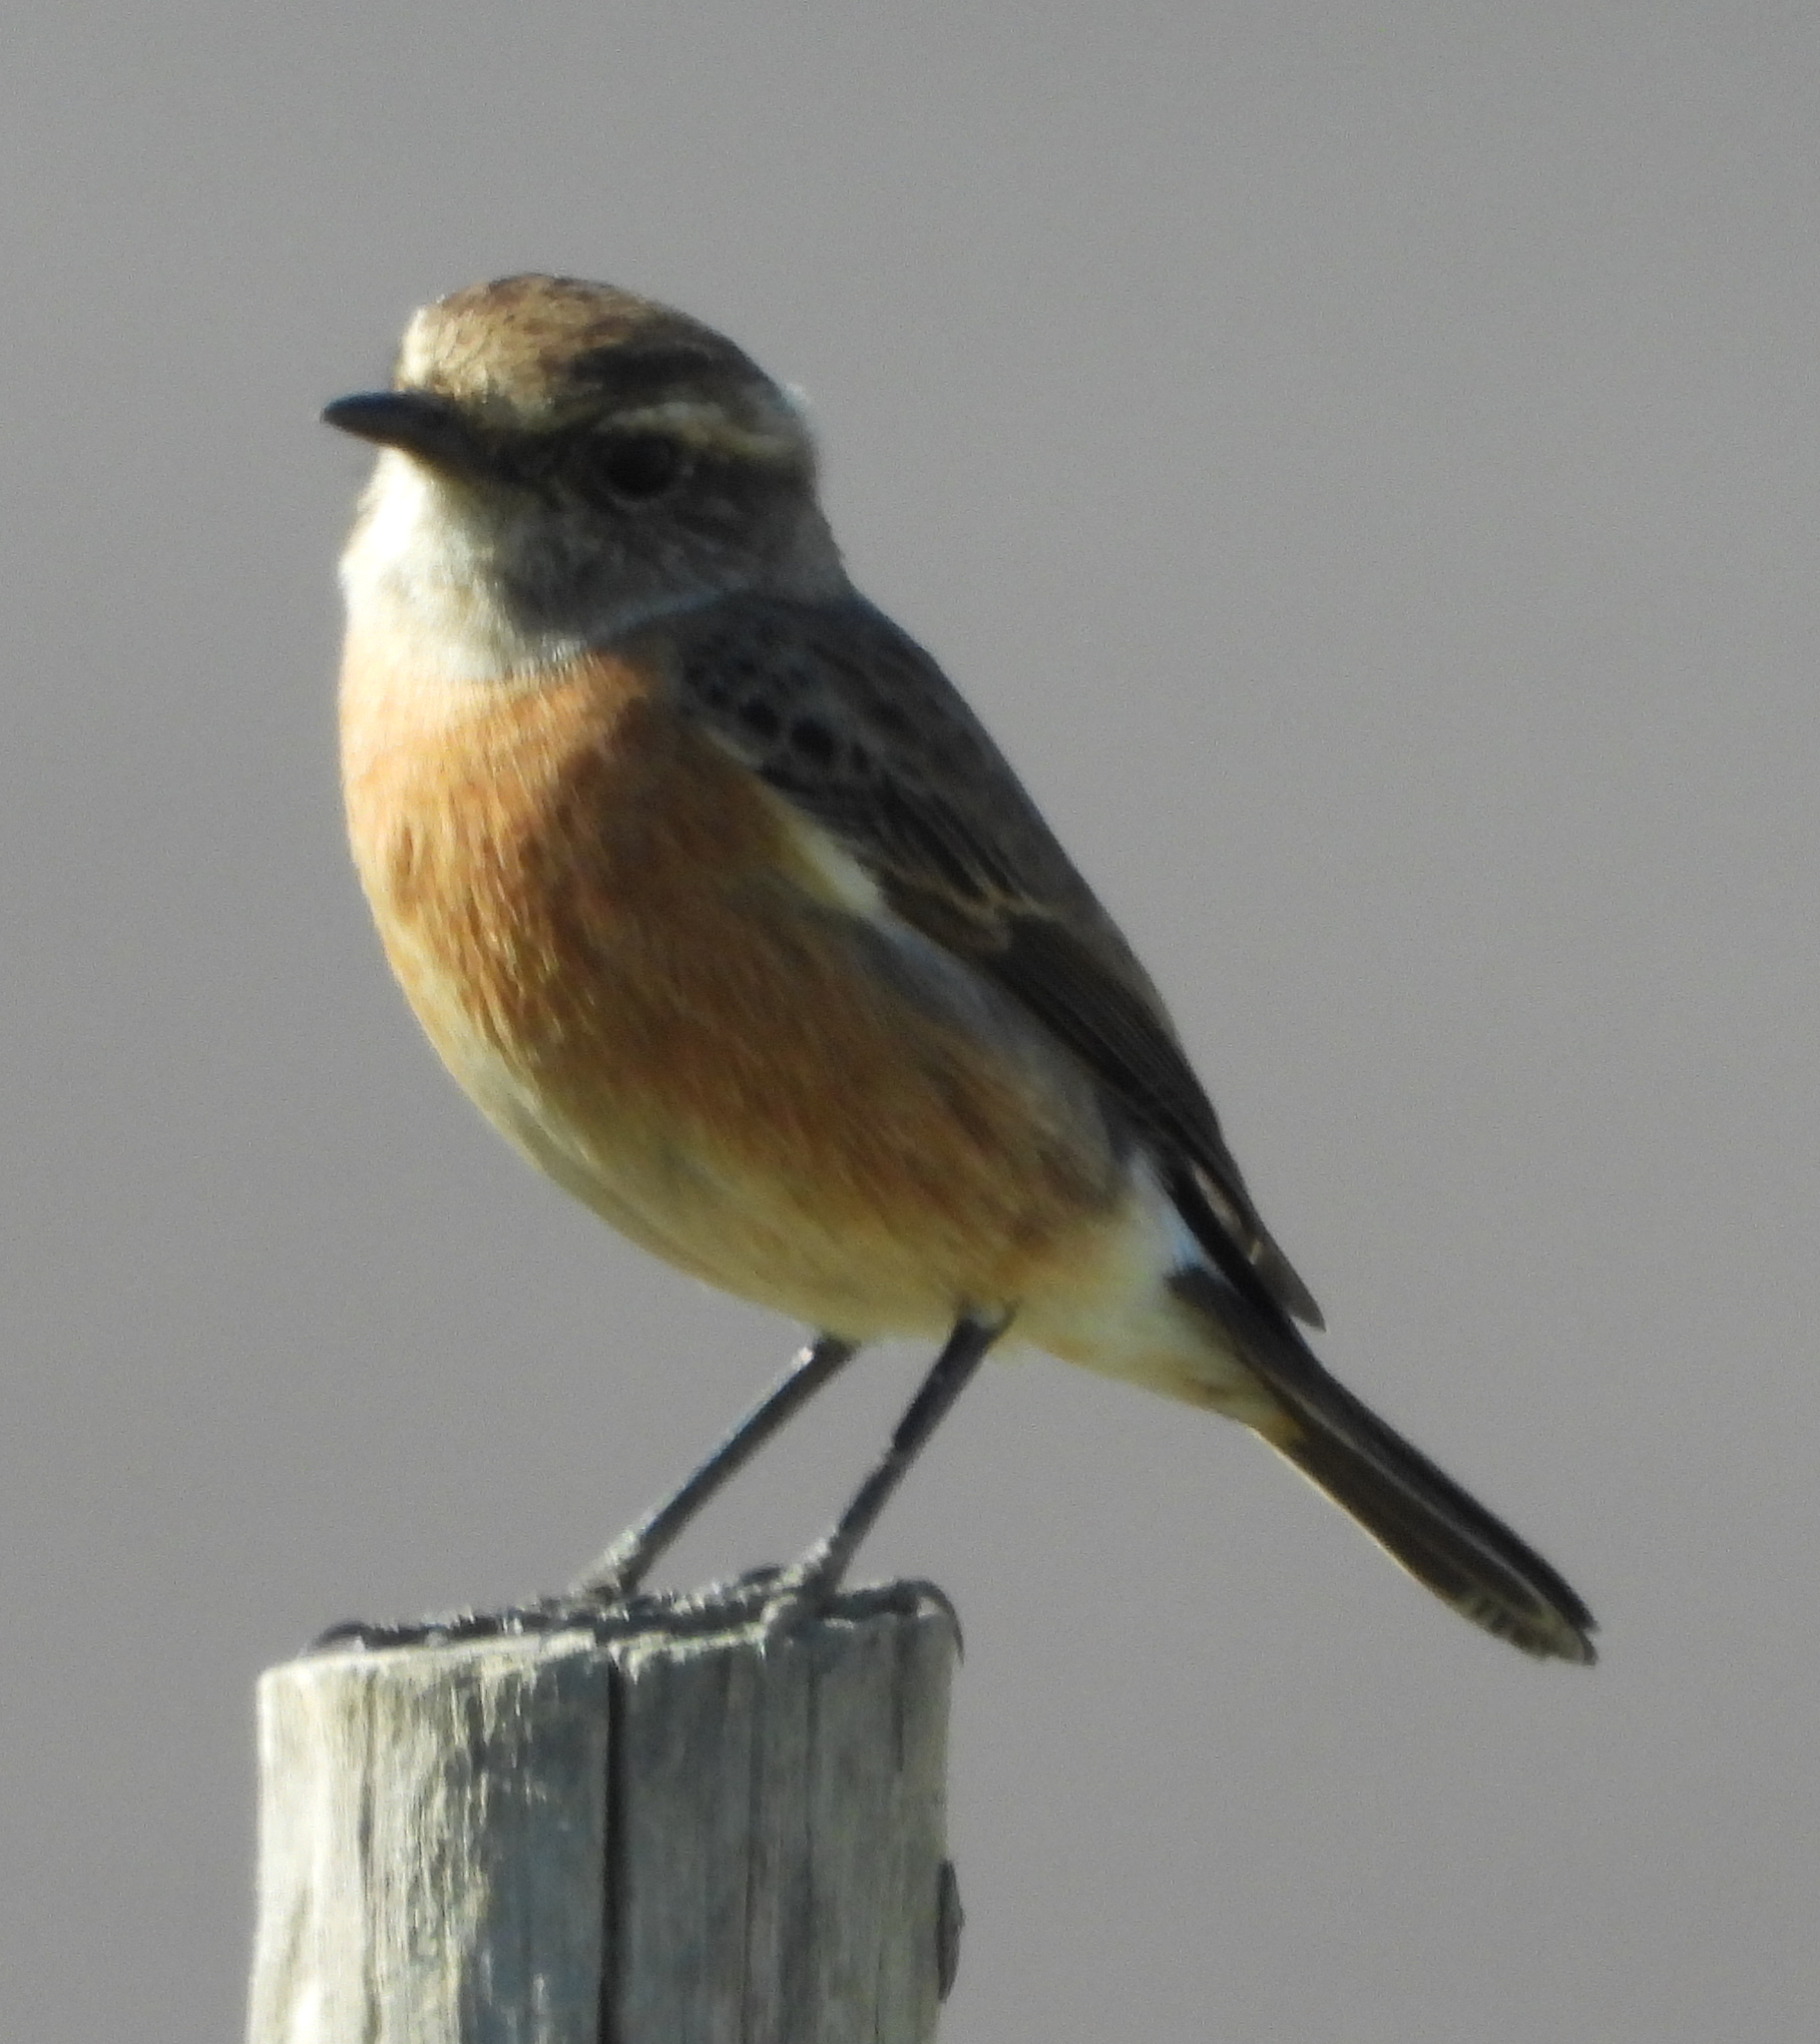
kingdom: Animalia
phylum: Chordata
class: Aves
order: Passeriformes
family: Muscicapidae
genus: Saxicola
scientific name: Saxicola torquatus
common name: African stonechat
